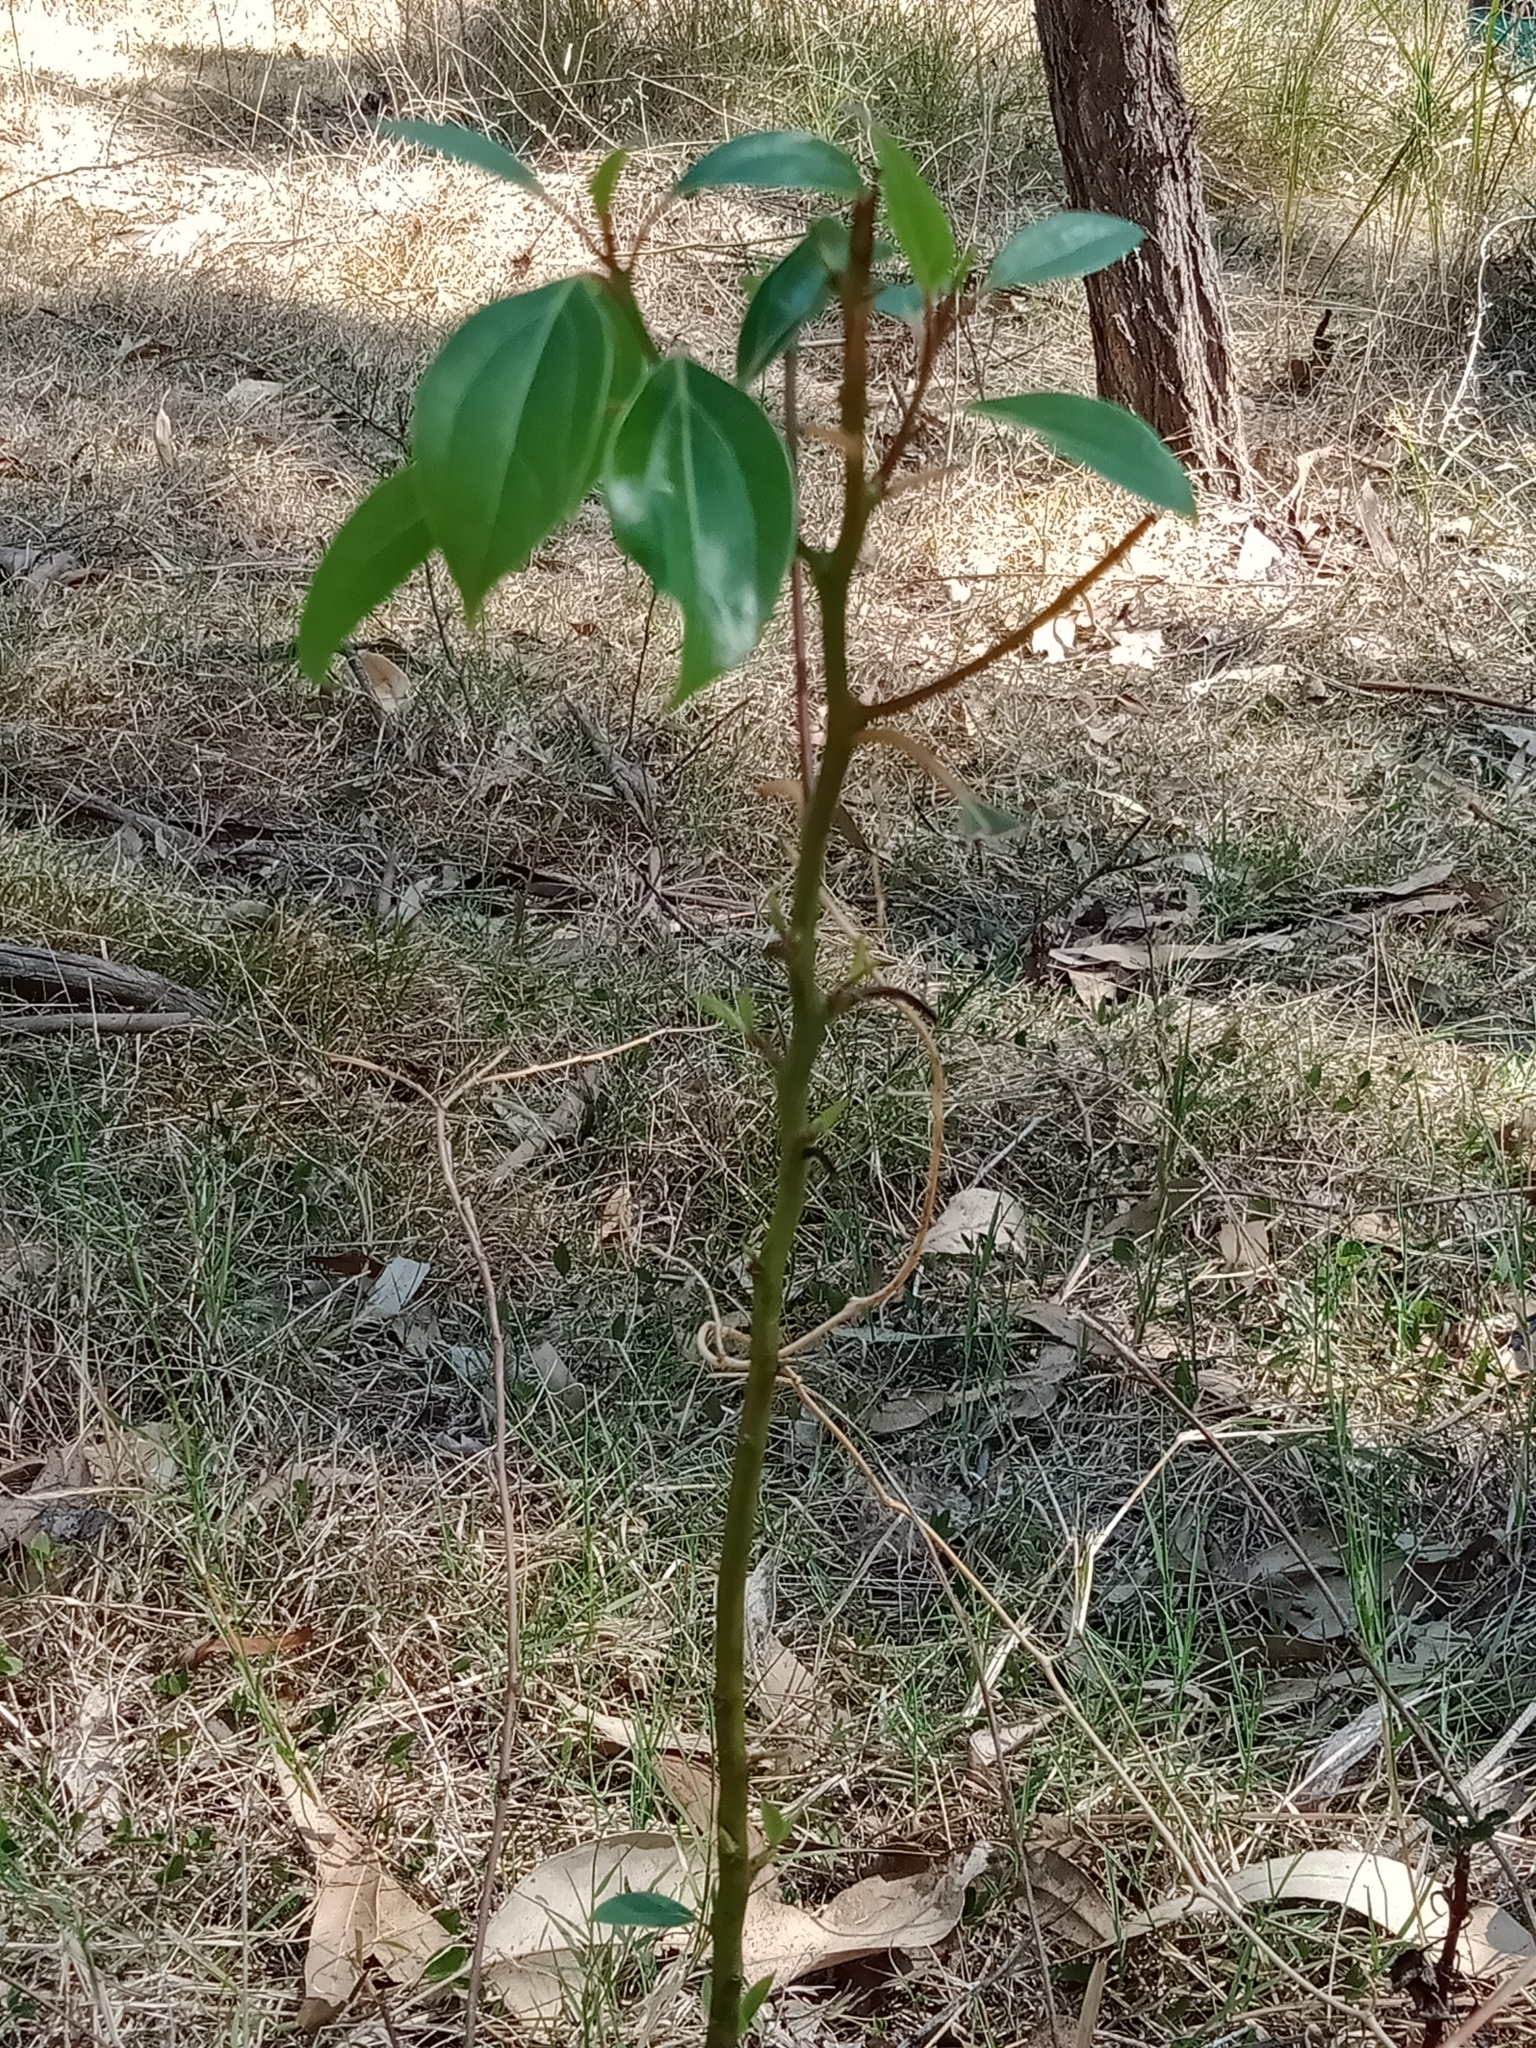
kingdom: Plantae
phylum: Tracheophyta
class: Magnoliopsida
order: Laurales
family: Lauraceae
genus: Cinnamomum
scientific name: Cinnamomum camphora
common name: Camphortree
